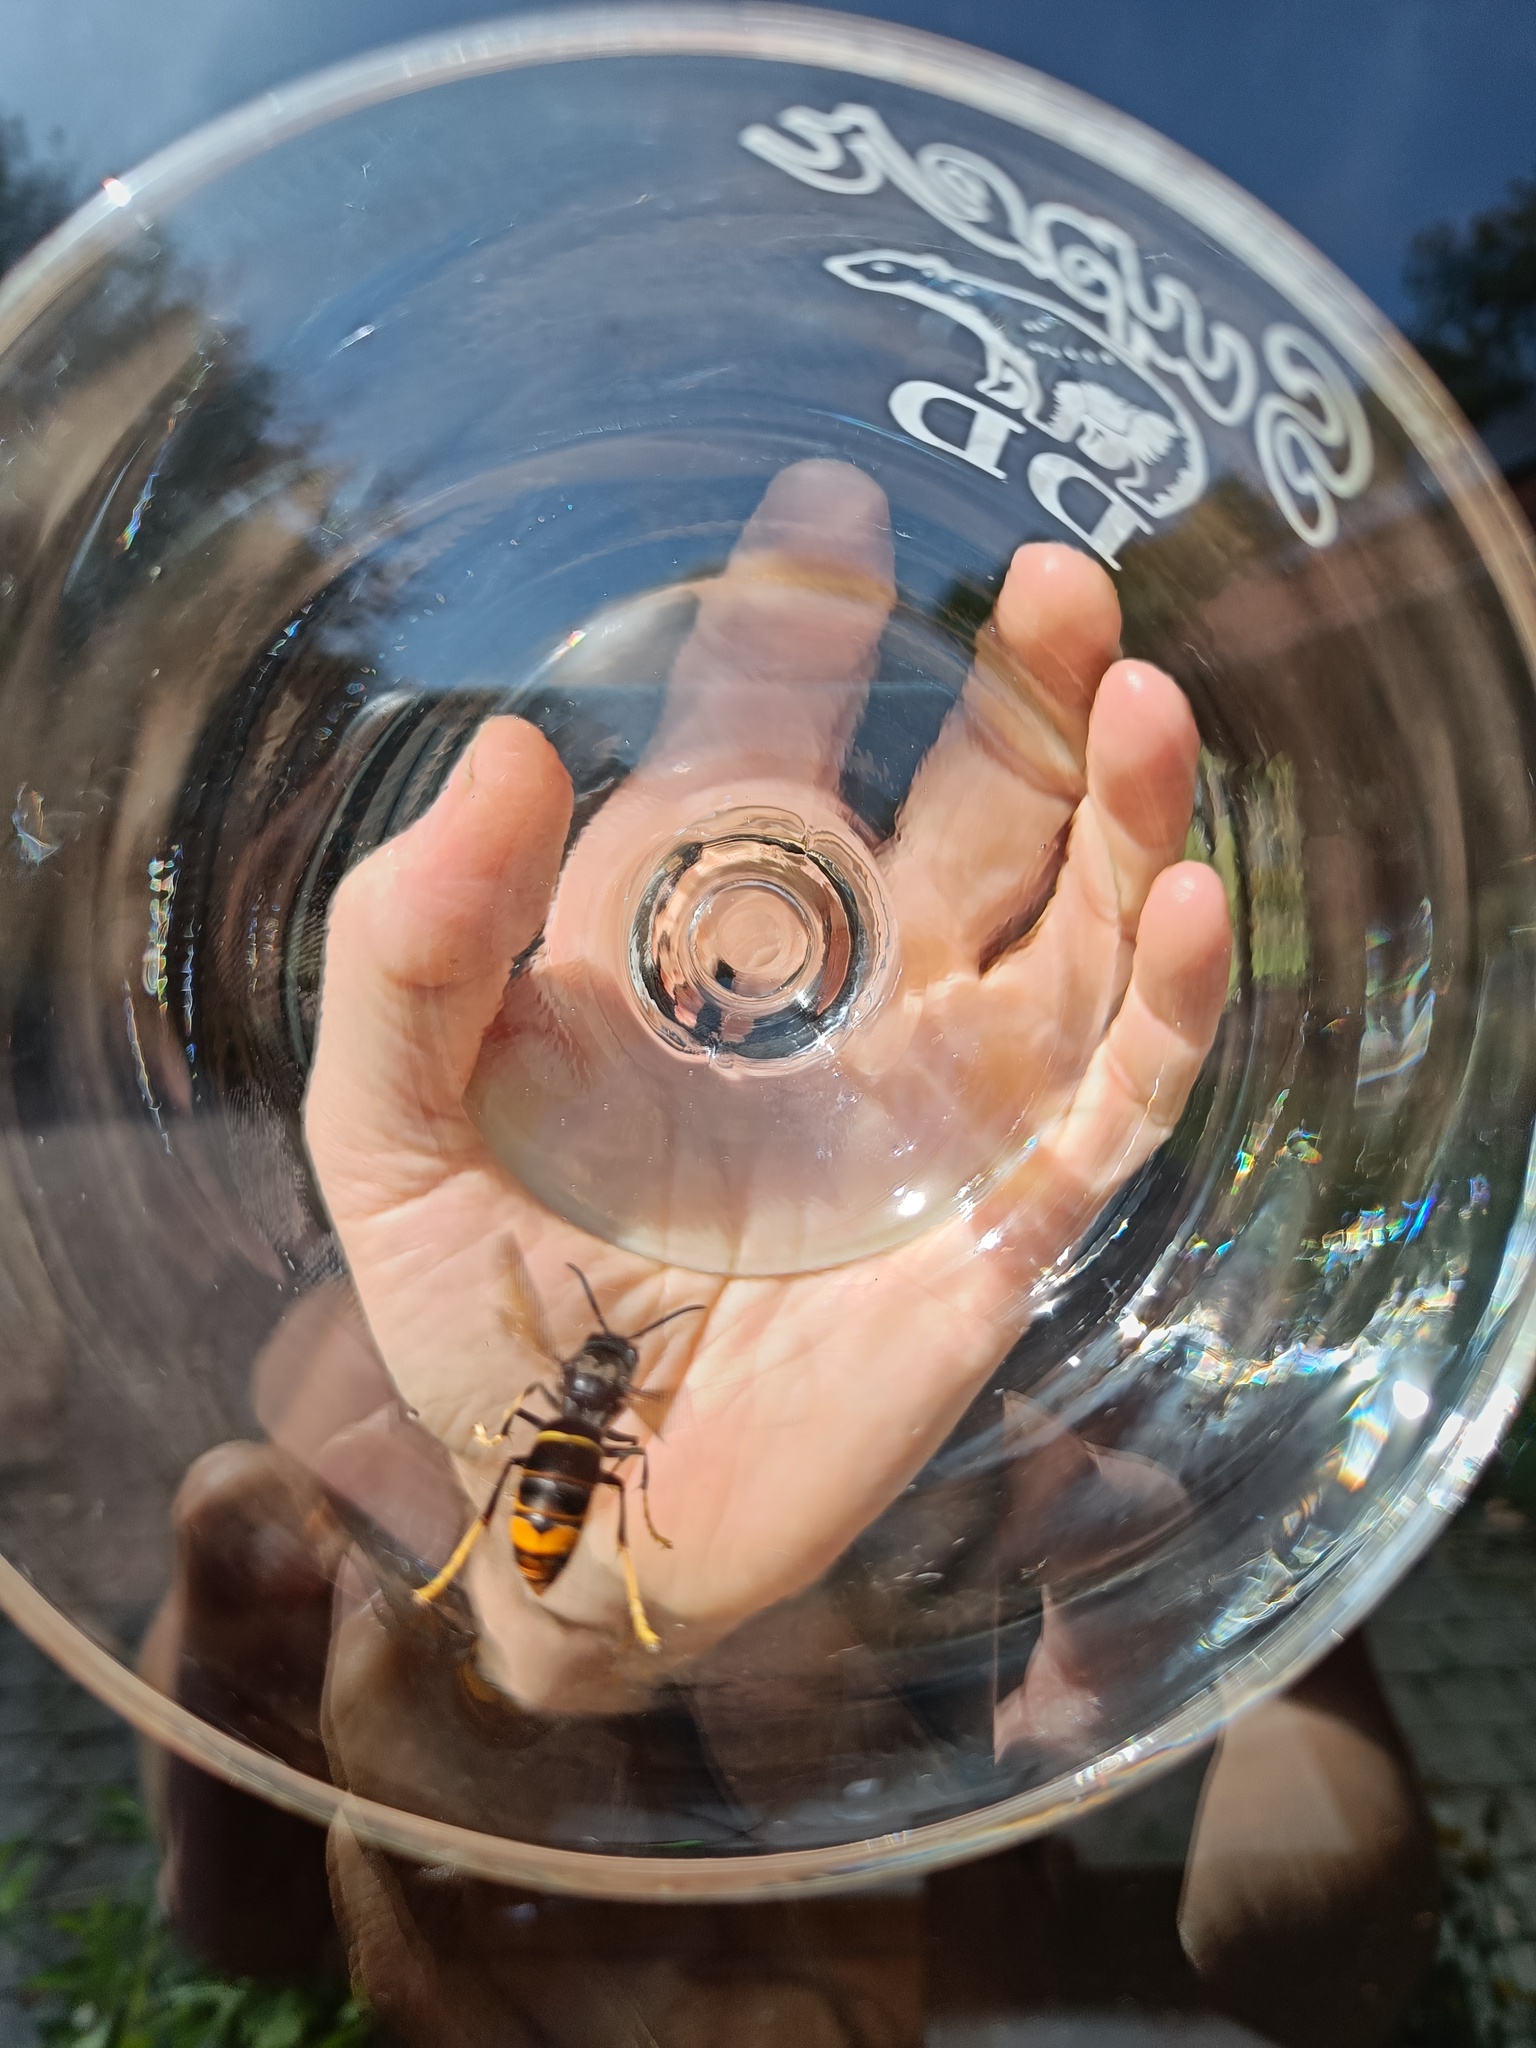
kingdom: Animalia
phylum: Arthropoda
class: Insecta
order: Hymenoptera
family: Vespidae
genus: Vespa
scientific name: Vespa velutina
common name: Asian hornet
